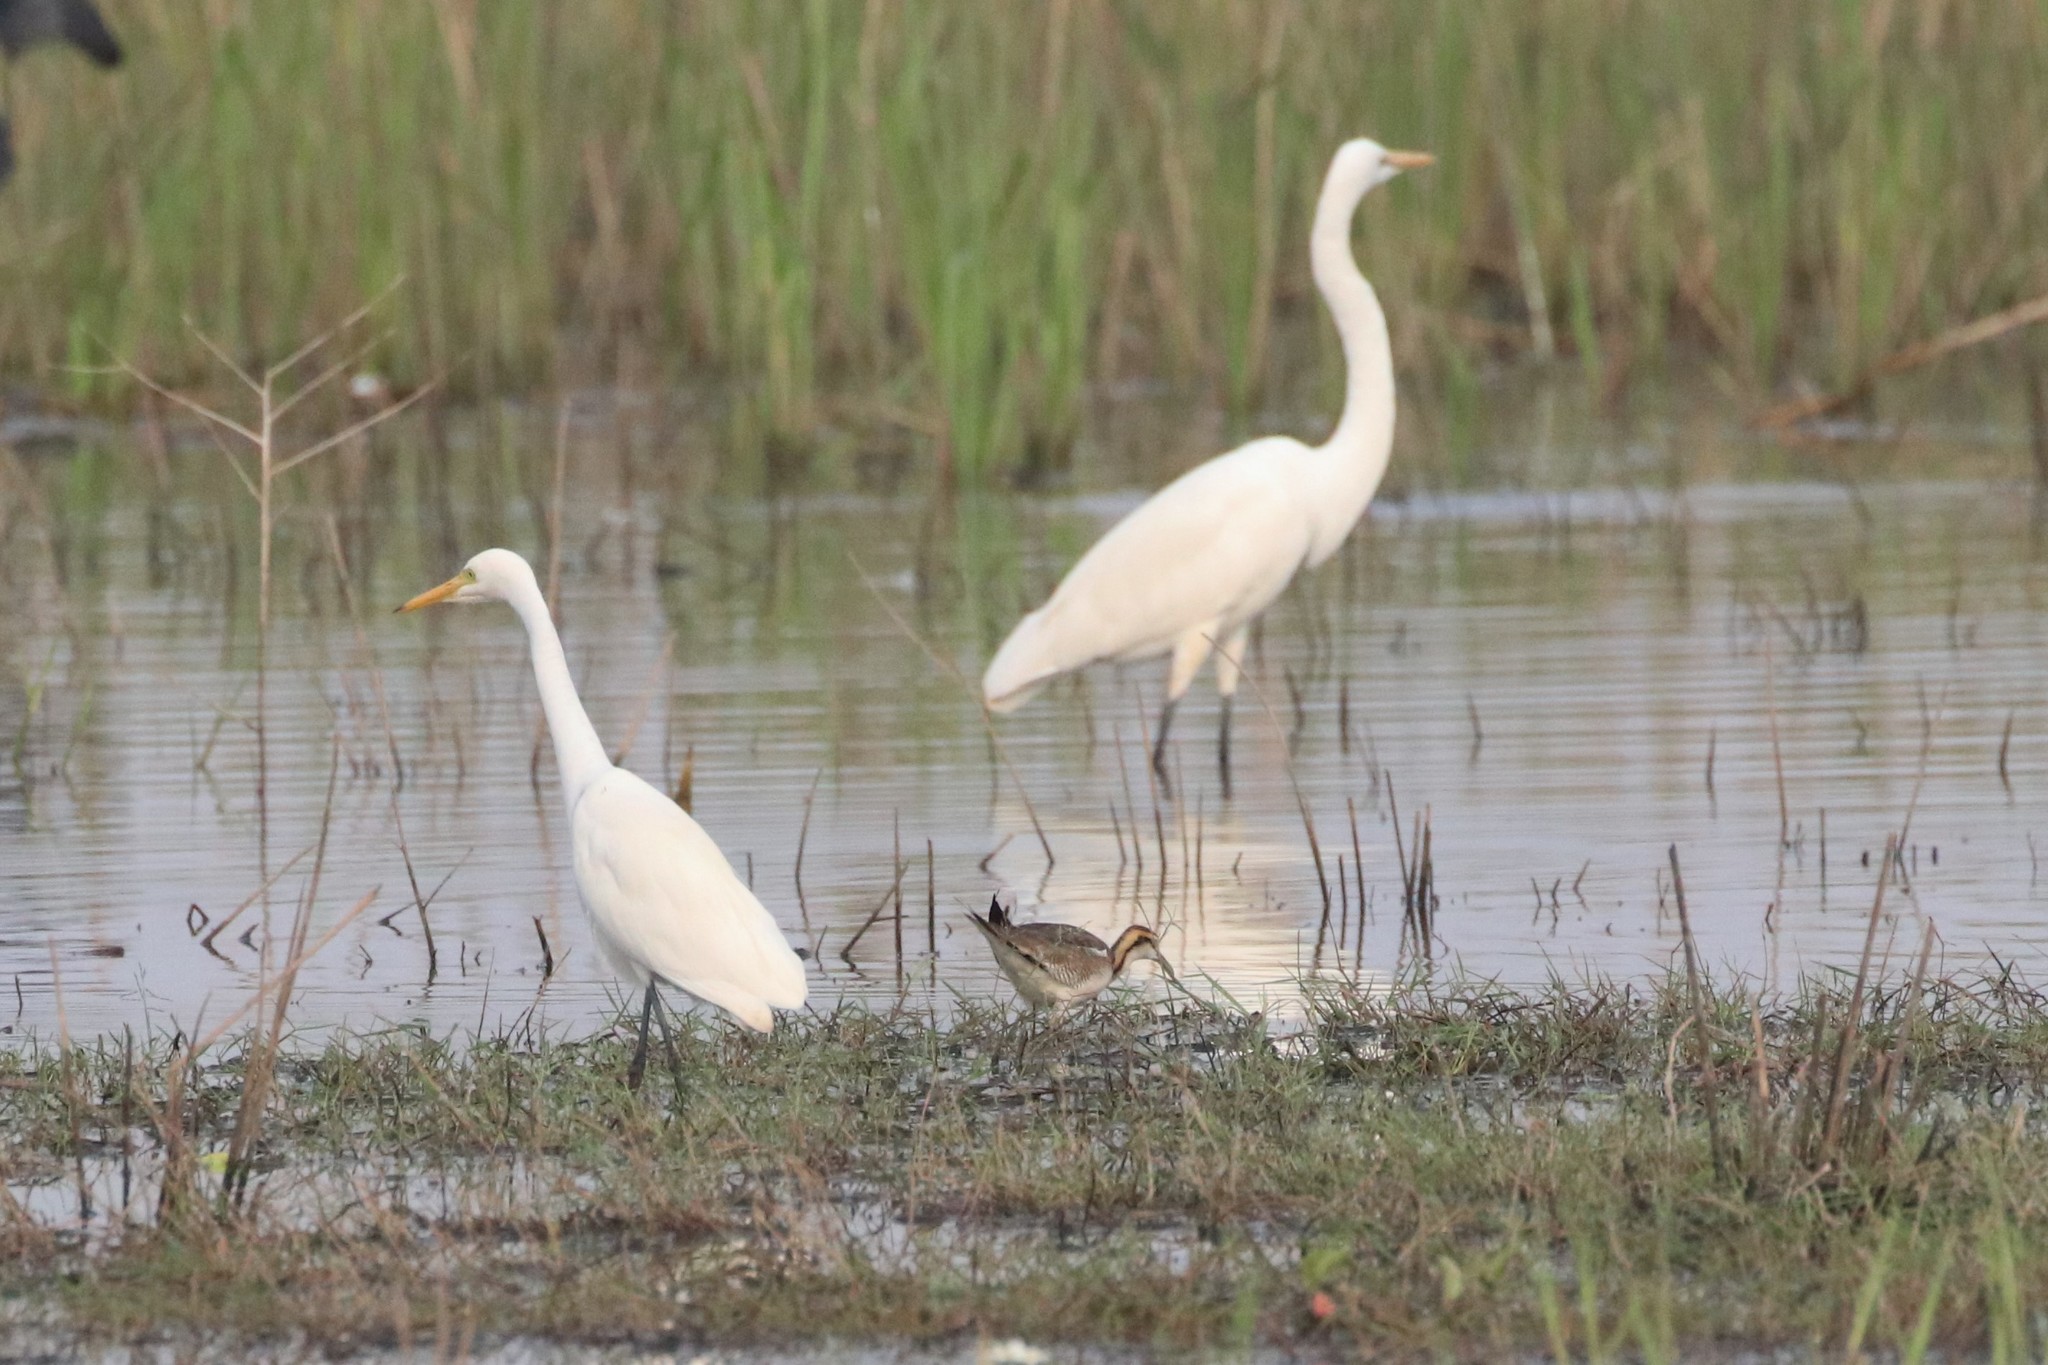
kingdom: Animalia
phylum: Chordata
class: Aves
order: Pelecaniformes
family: Ardeidae
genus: Ardea
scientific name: Ardea alba
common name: Great egret
